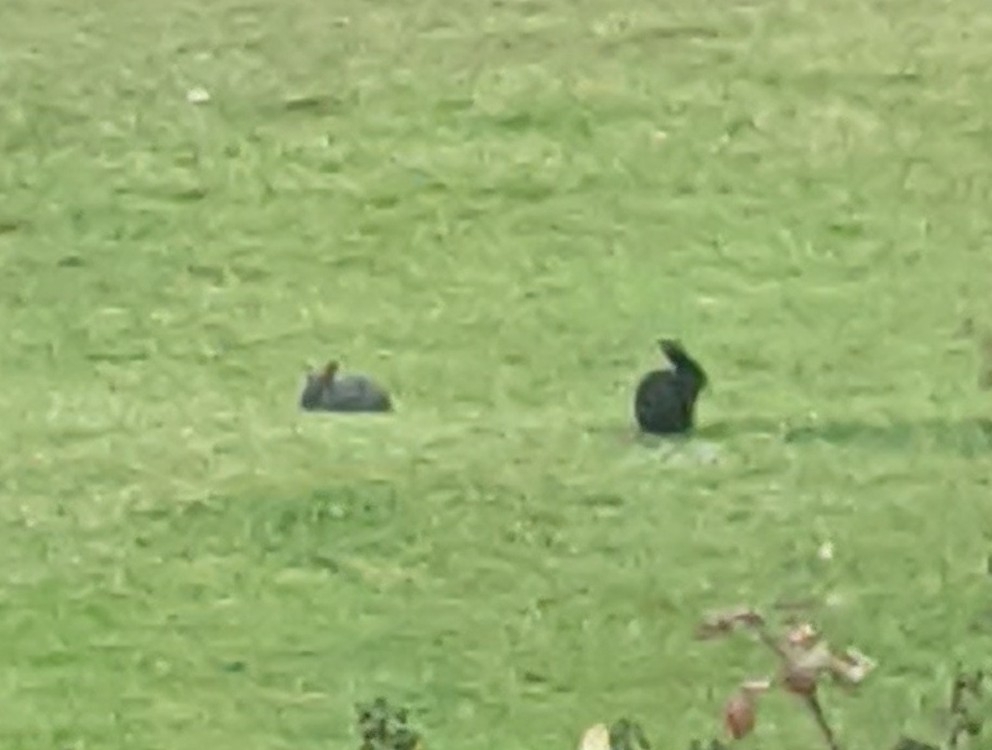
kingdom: Animalia
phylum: Chordata
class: Mammalia
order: Lagomorpha
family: Leporidae
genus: Oryctolagus
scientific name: Oryctolagus cuniculus
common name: European rabbit
